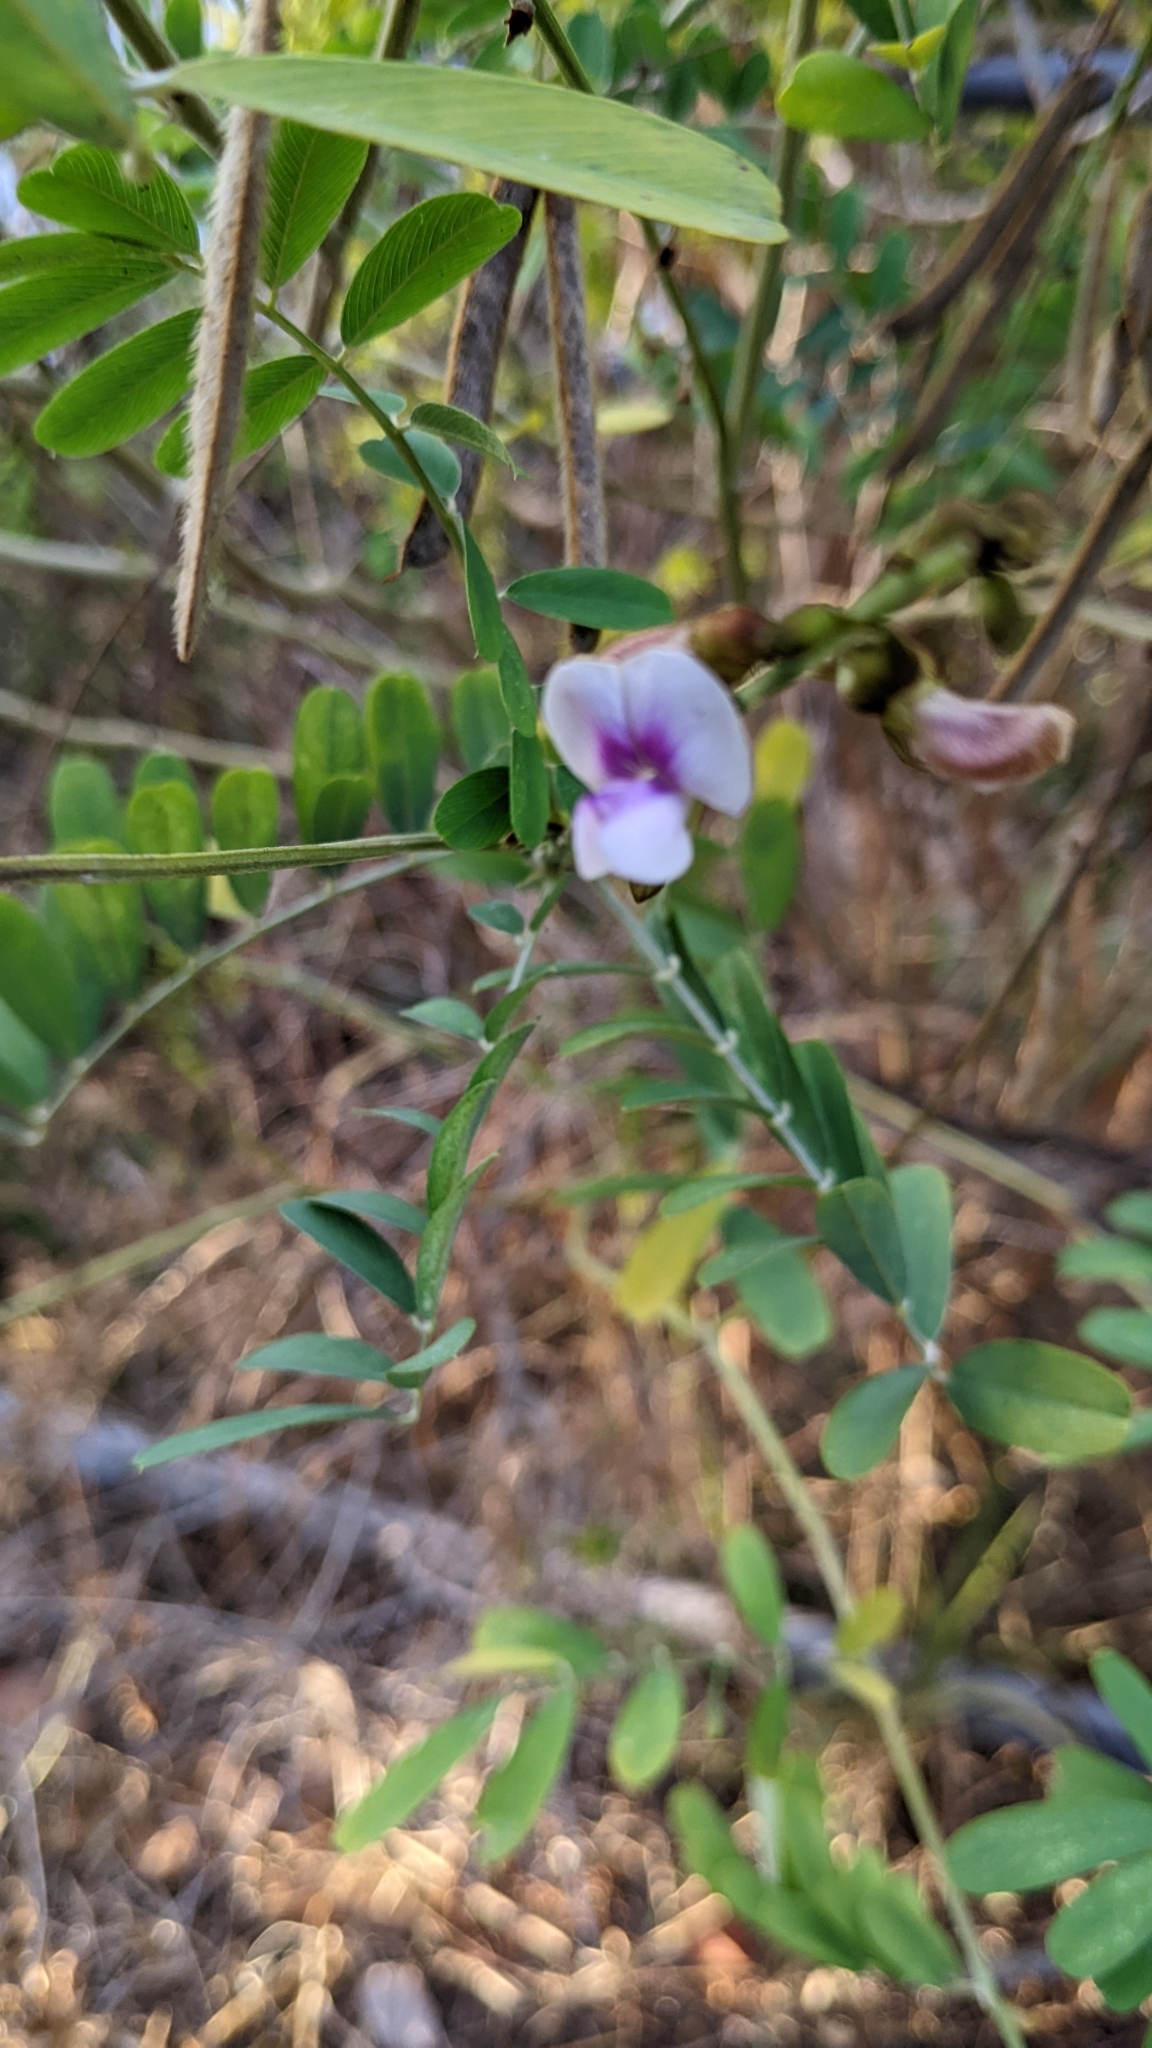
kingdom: Plantae
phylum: Tracheophyta
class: Magnoliopsida
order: Fabales
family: Fabaceae
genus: Tephrosia
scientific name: Tephrosia noctiflora
